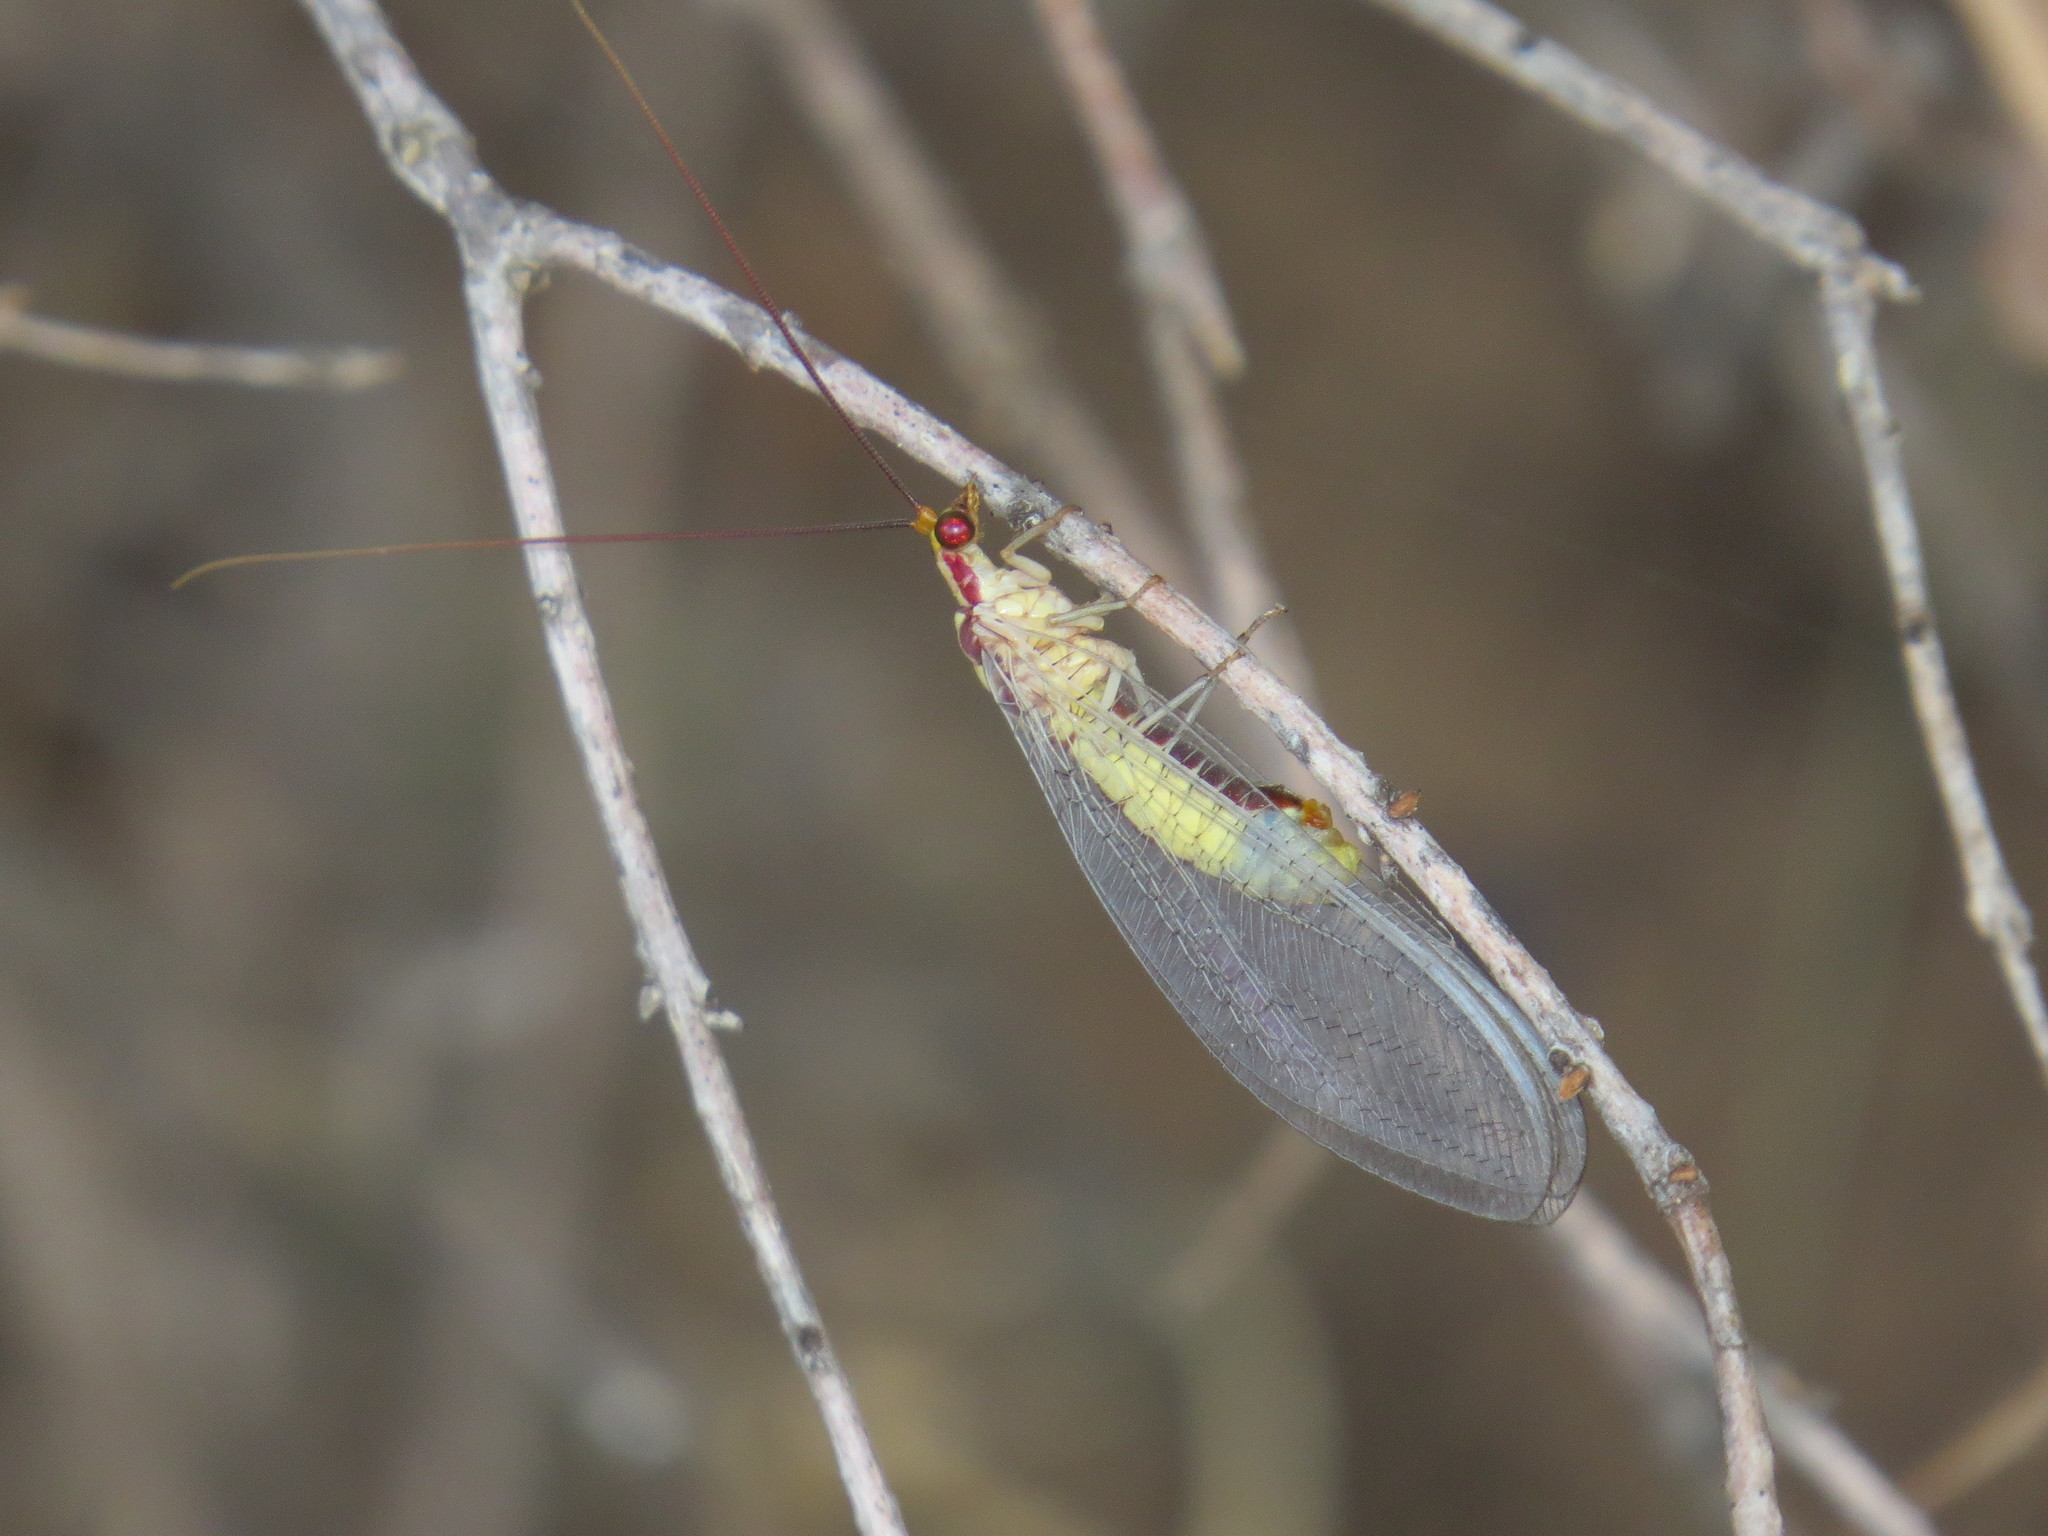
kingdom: Animalia
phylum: Arthropoda
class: Insecta
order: Neuroptera
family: Chrysopidae
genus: Italochrysa
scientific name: Italochrysa italica
